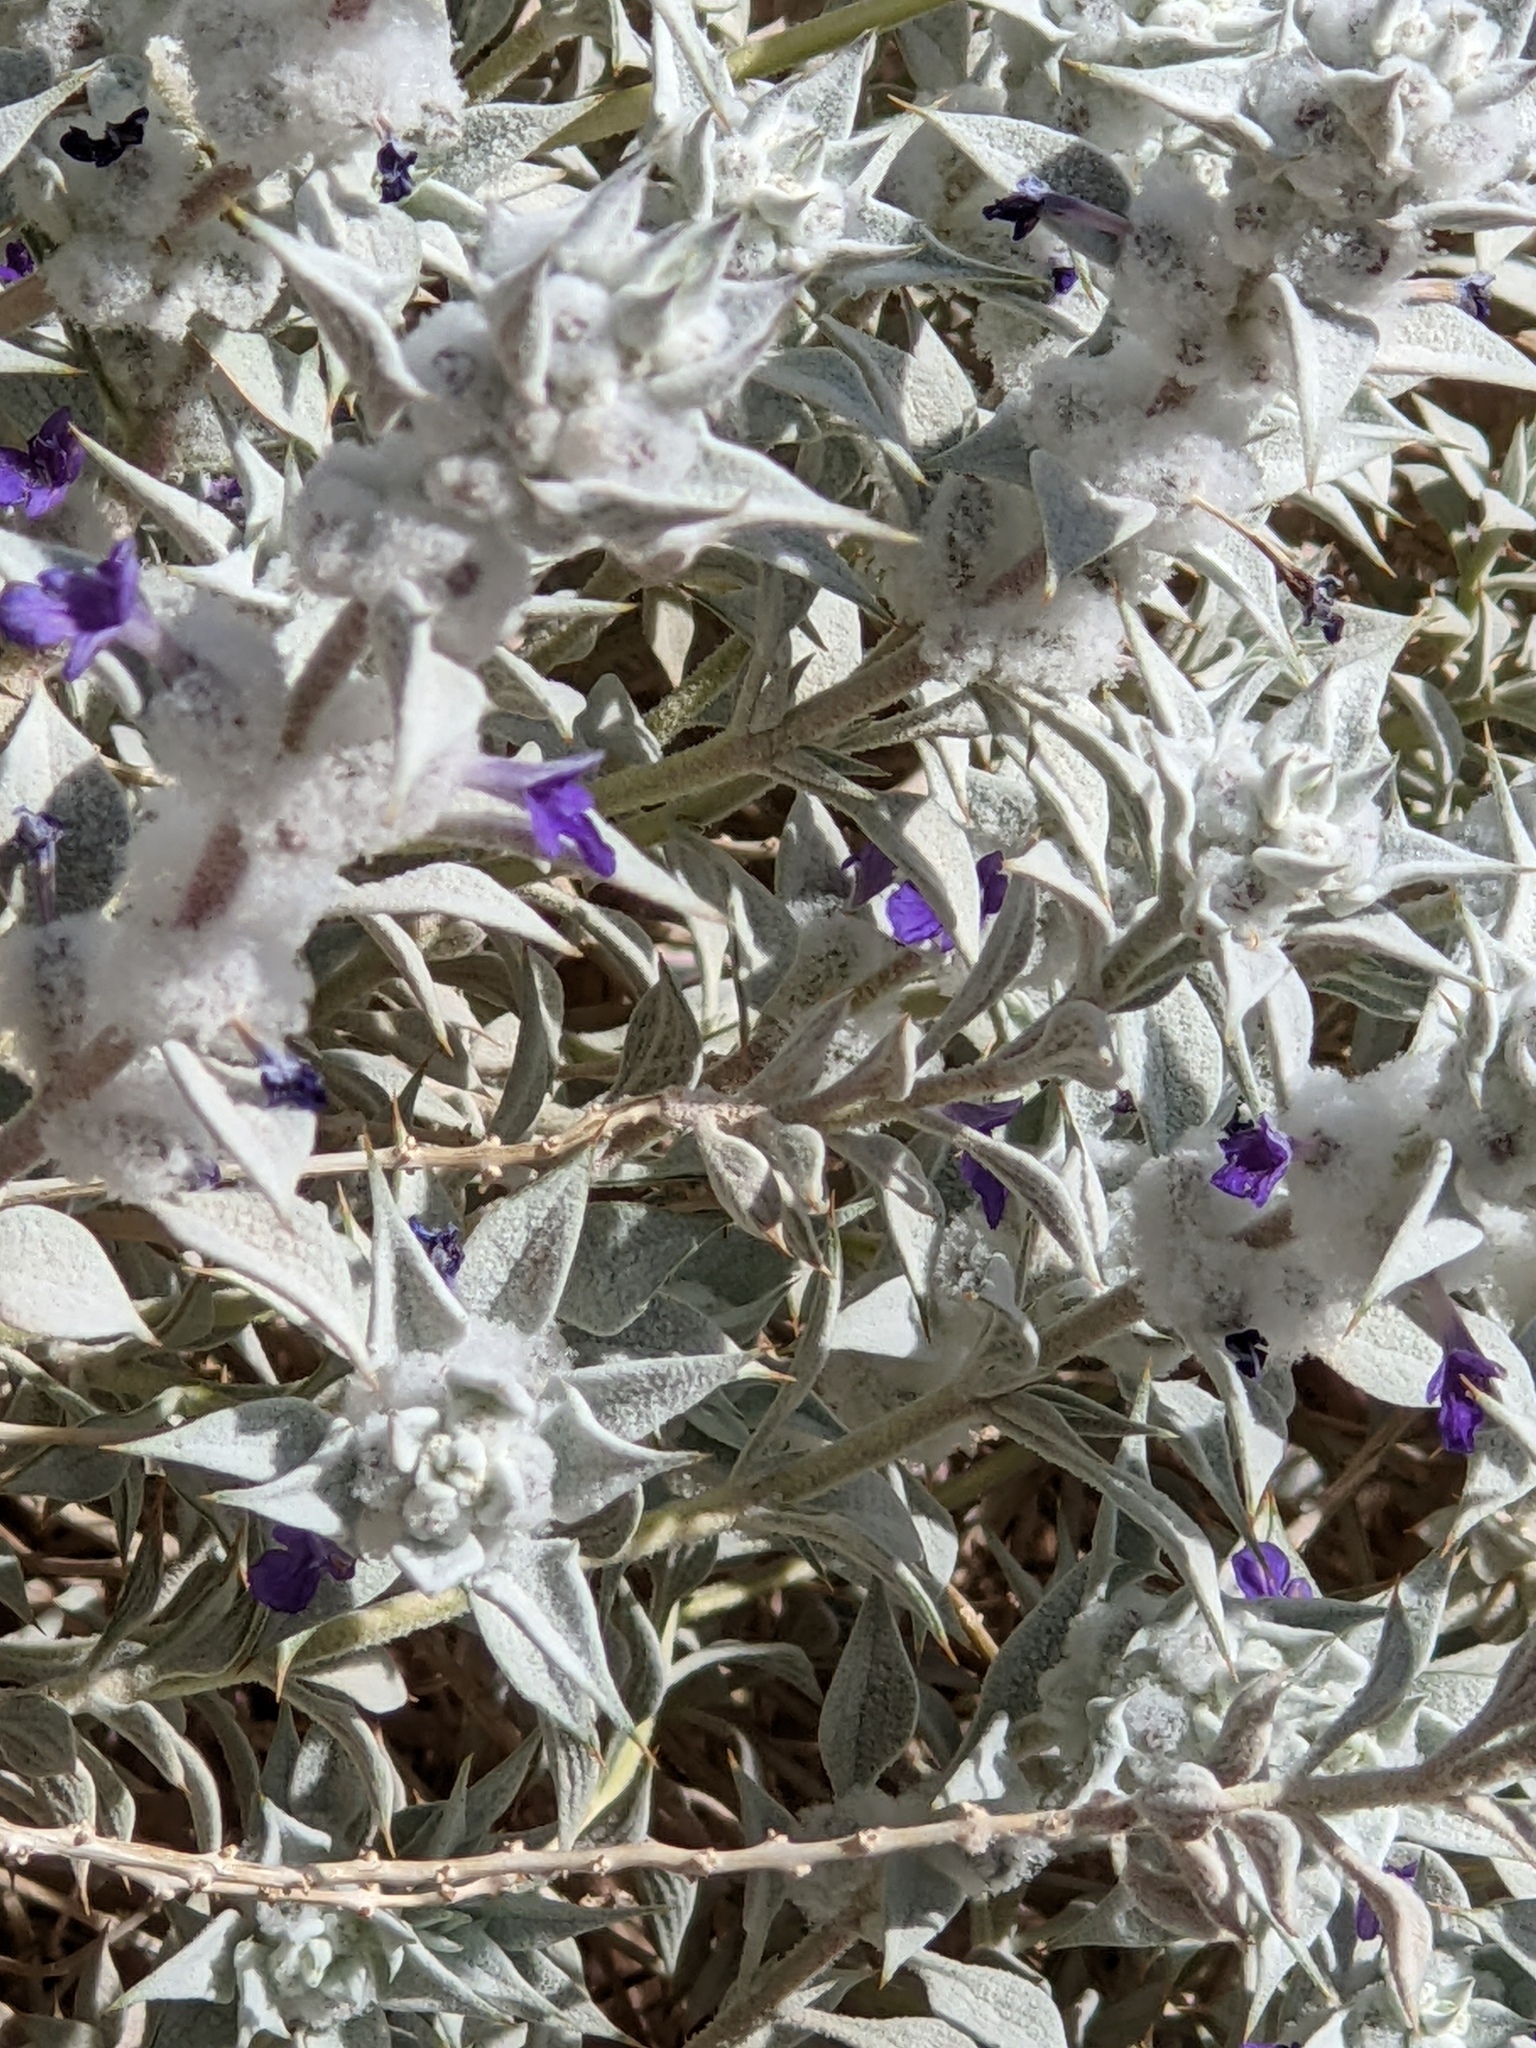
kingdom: Plantae
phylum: Tracheophyta
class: Magnoliopsida
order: Lamiales
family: Lamiaceae
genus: Salvia
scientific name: Salvia funerea
